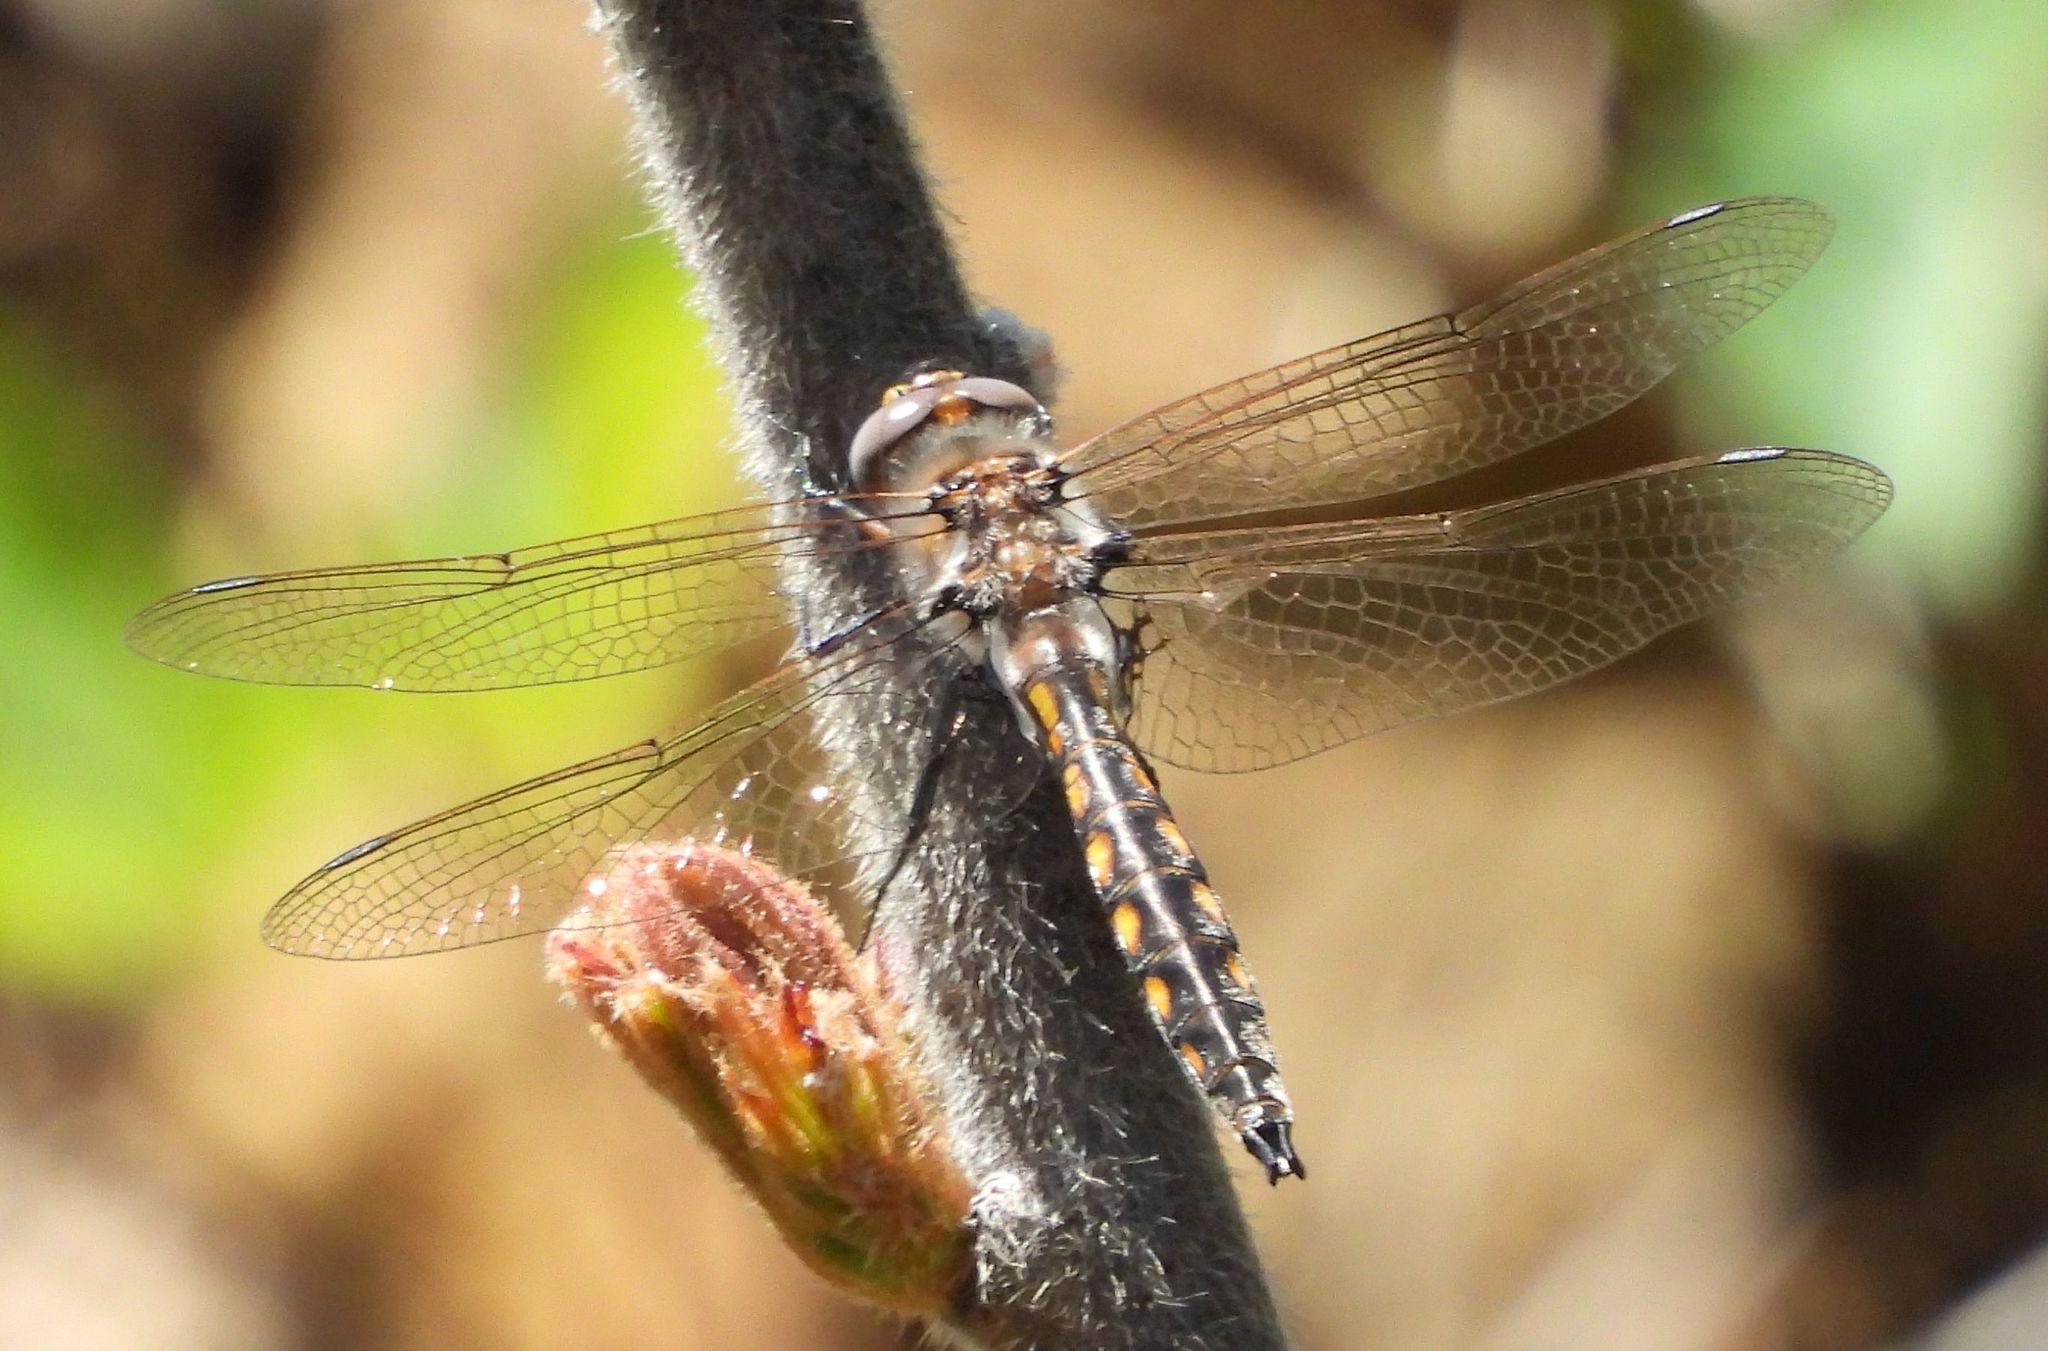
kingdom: Animalia
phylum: Arthropoda
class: Insecta
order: Odonata
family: Corduliidae
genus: Epitheca
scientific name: Epitheca canis
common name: Beaverpond baskettail
